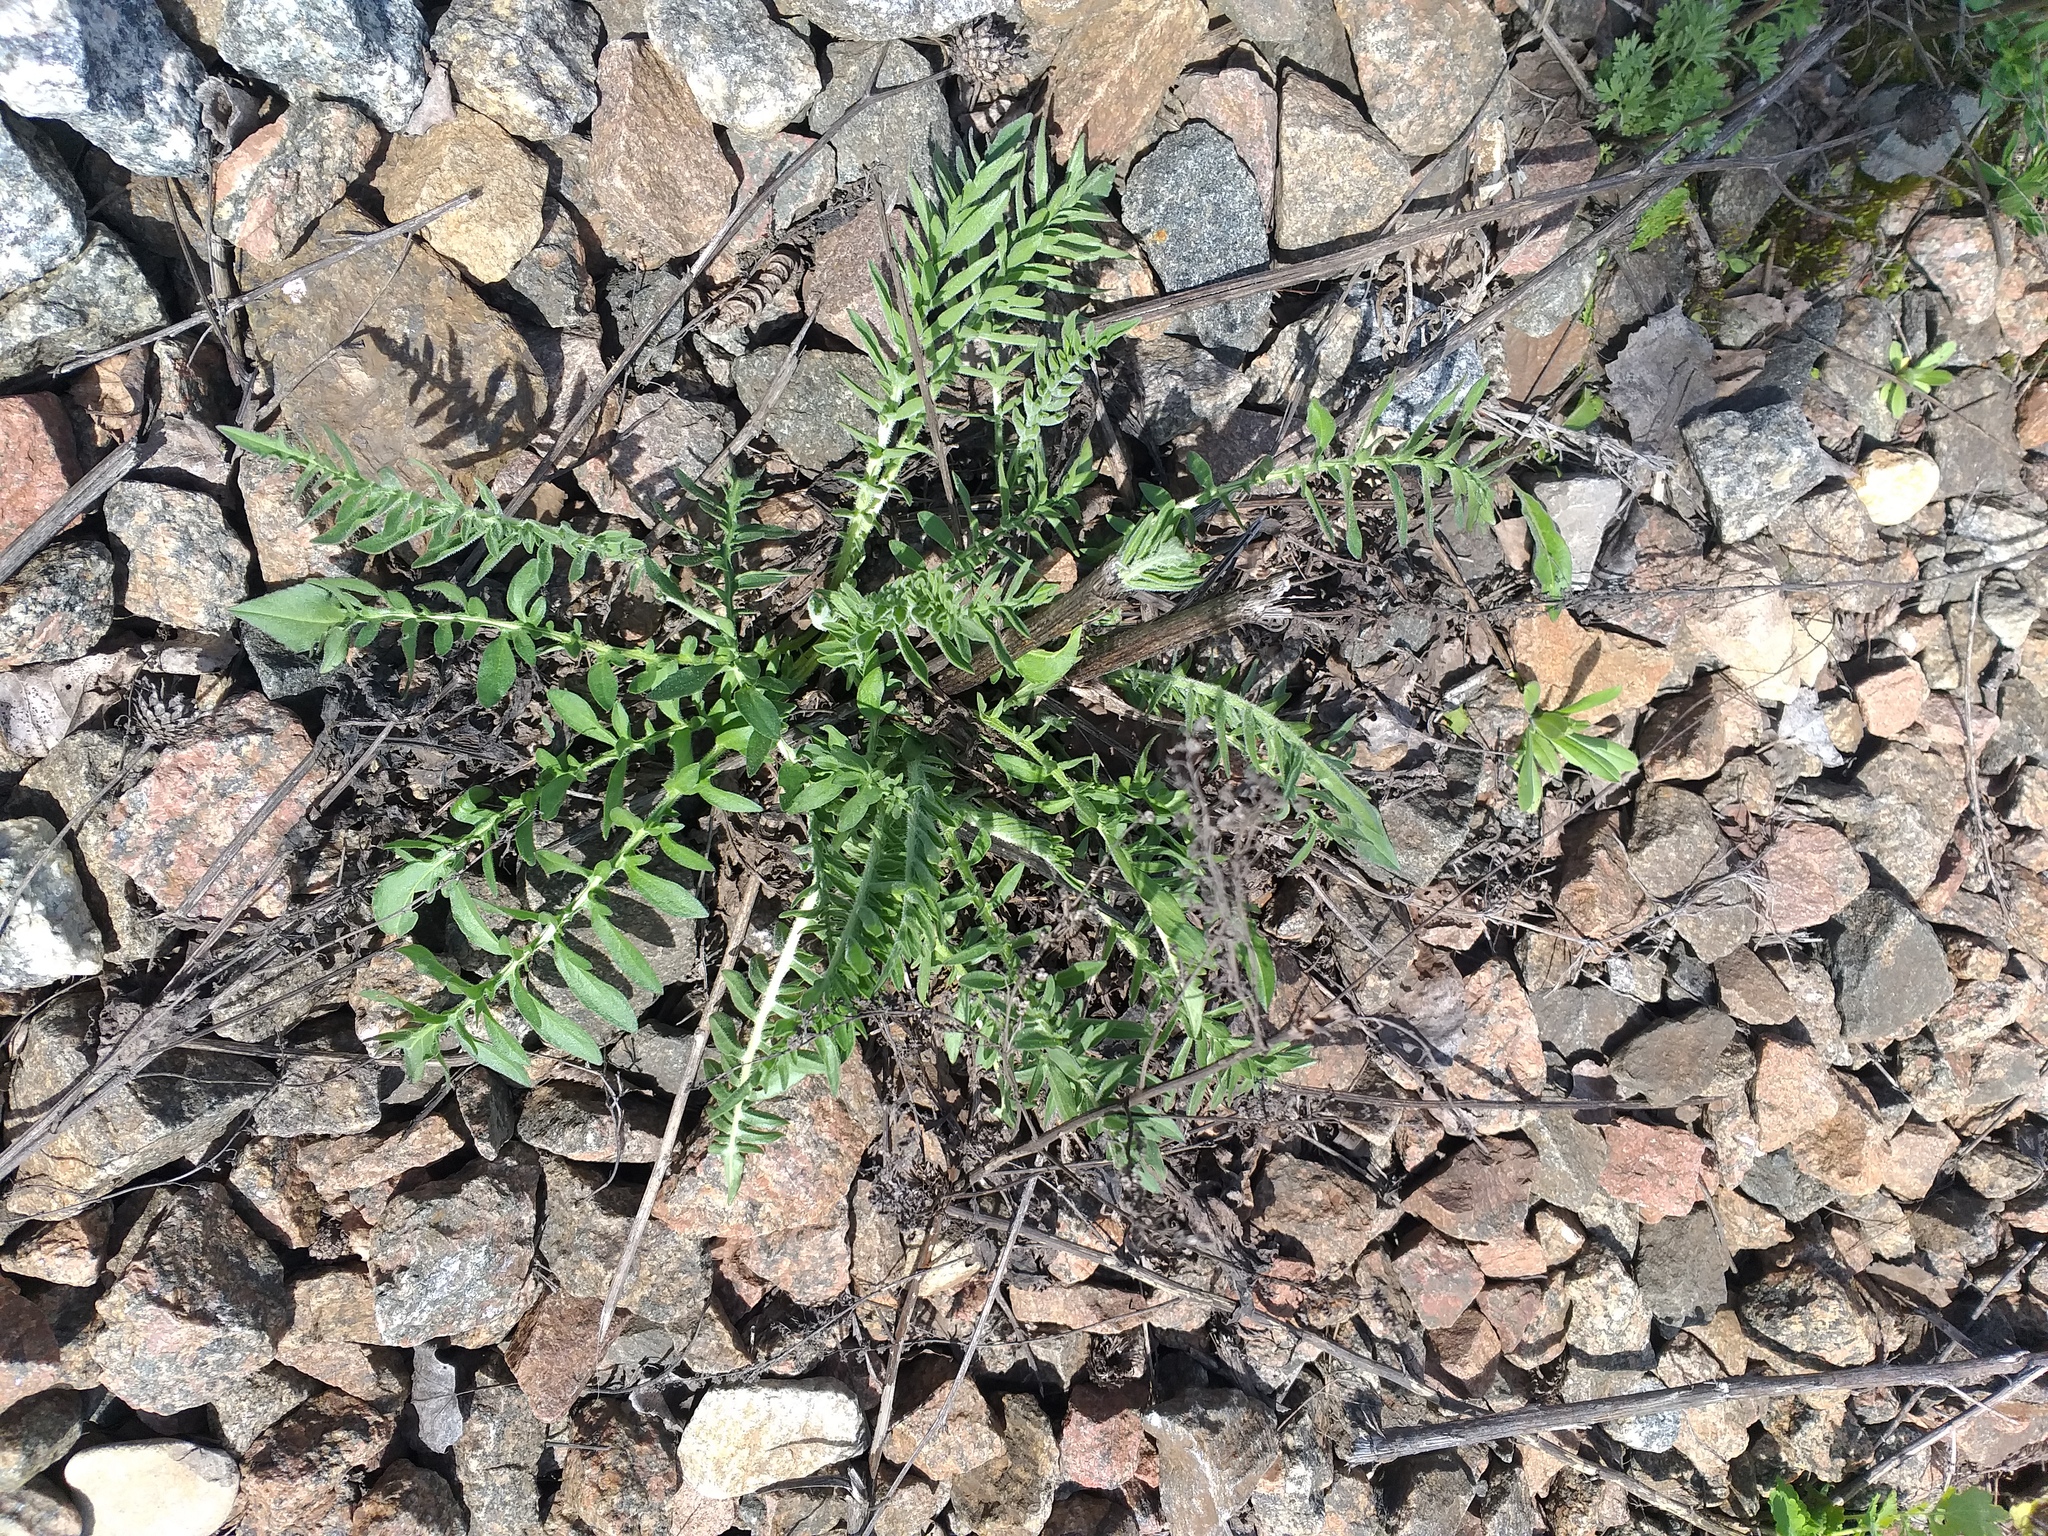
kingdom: Plantae
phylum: Tracheophyta
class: Magnoliopsida
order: Asterales
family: Asteraceae
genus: Centaurea
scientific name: Centaurea scabiosa
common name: Greater knapweed
